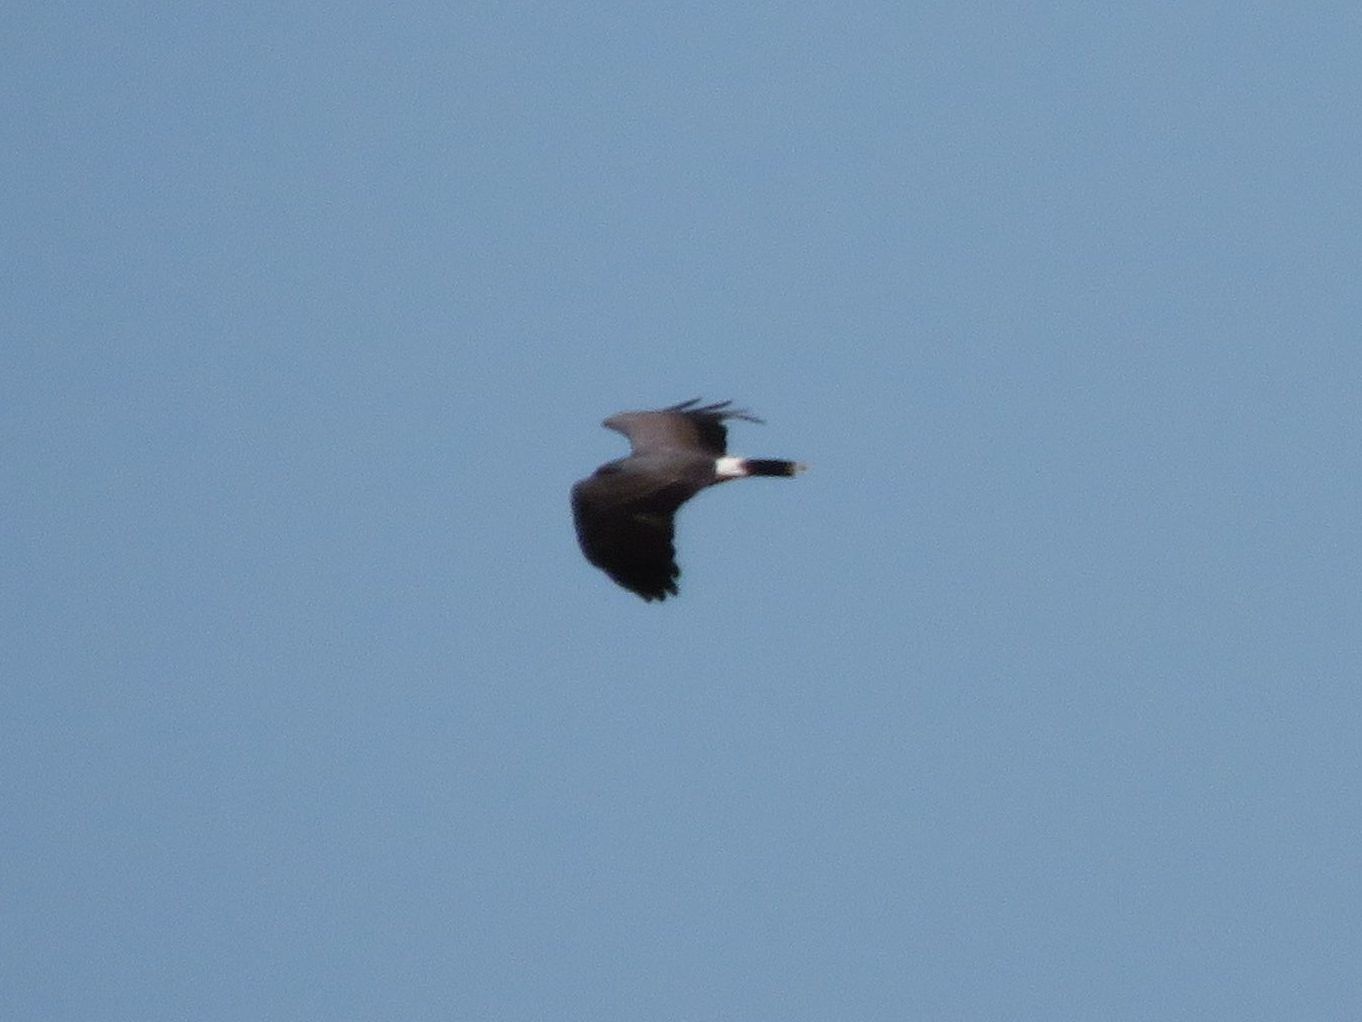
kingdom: Animalia
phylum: Chordata
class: Aves
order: Accipitriformes
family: Accipitridae
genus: Rostrhamus
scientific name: Rostrhamus sociabilis
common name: Snail kite
